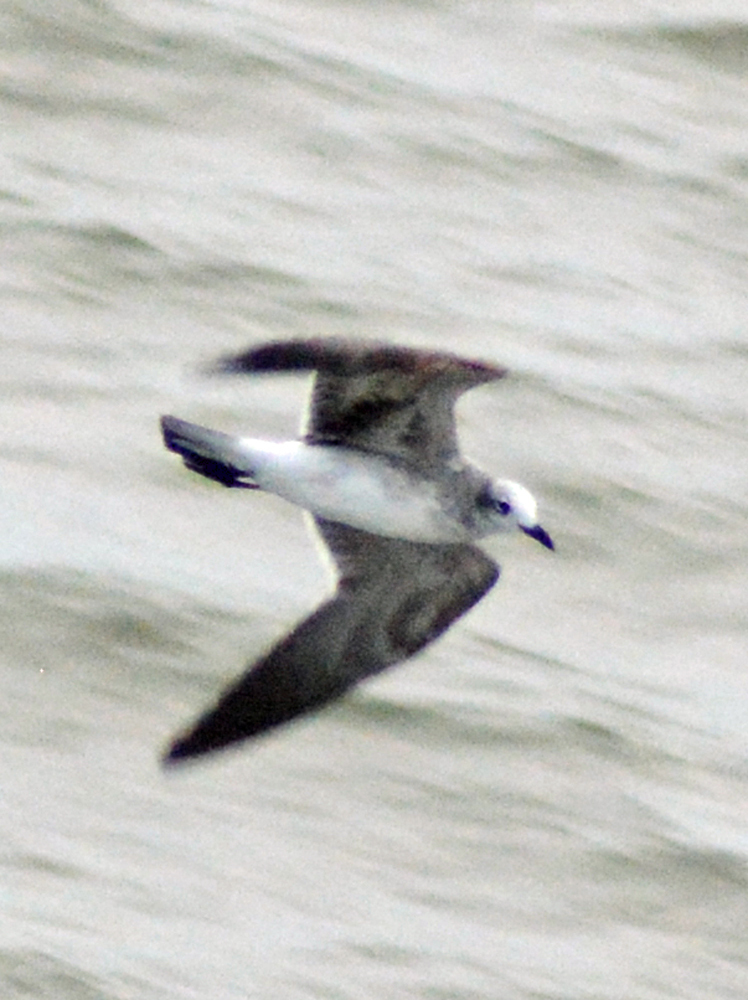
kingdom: Animalia
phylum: Chordata
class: Aves
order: Charadriiformes
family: Laridae
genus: Leucophaeus
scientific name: Leucophaeus atricilla
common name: Laughing gull
